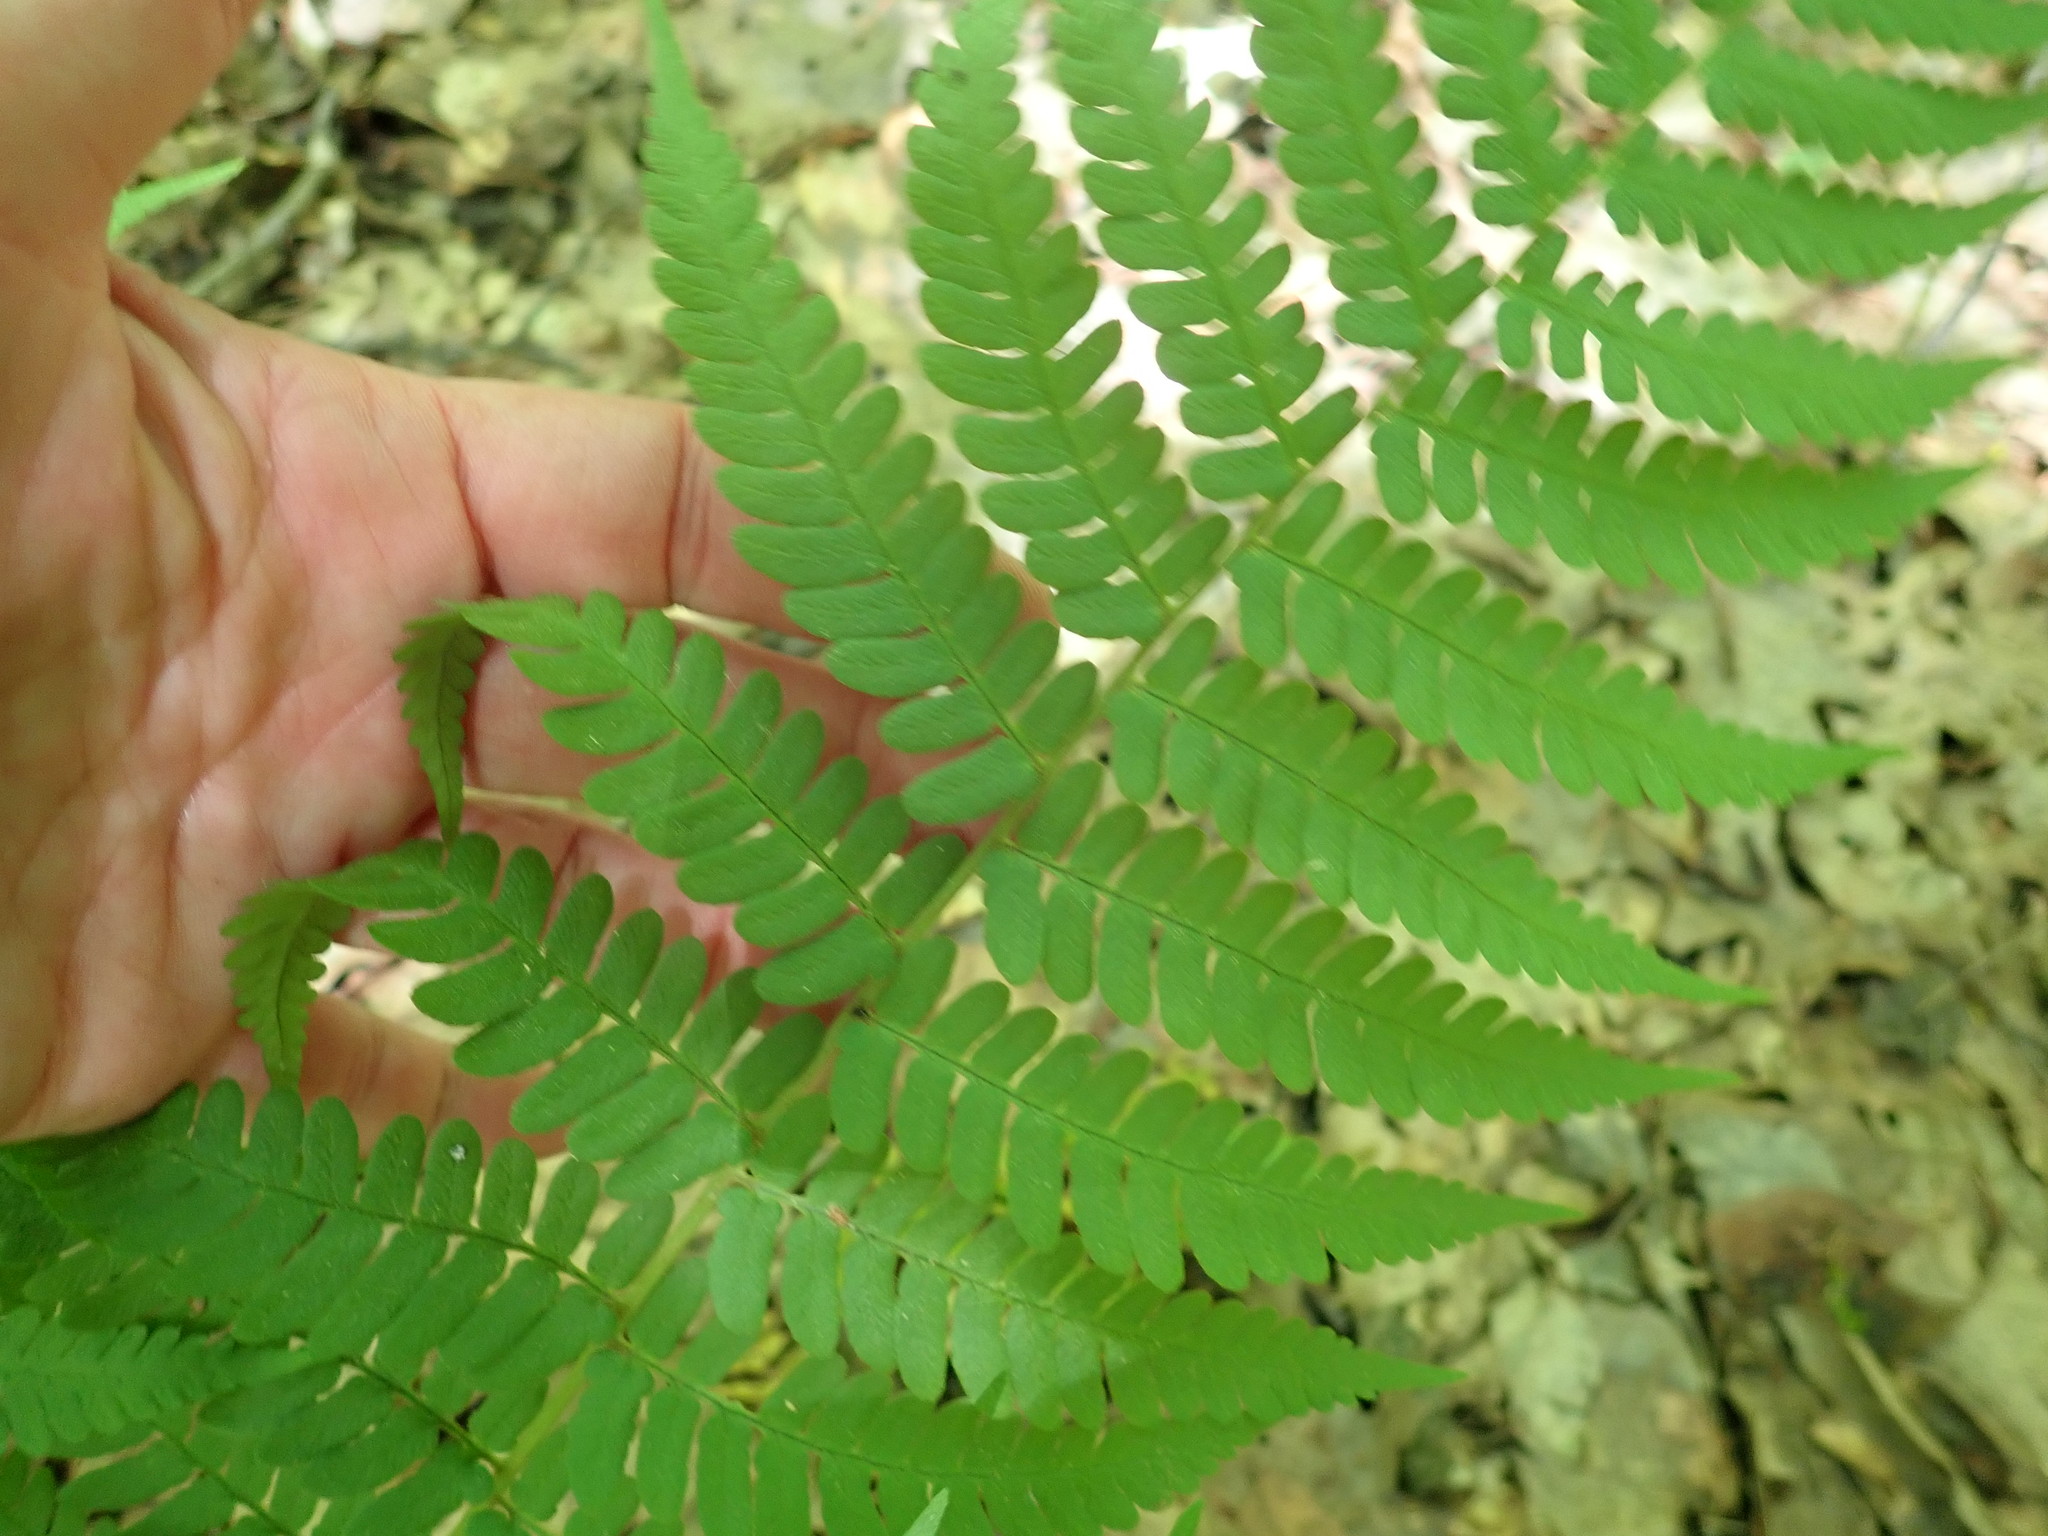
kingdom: Plantae
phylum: Tracheophyta
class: Polypodiopsida
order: Polypodiales
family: Dryopteridaceae
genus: Dryopteris
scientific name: Dryopteris marginalis
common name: Marginal wood fern
